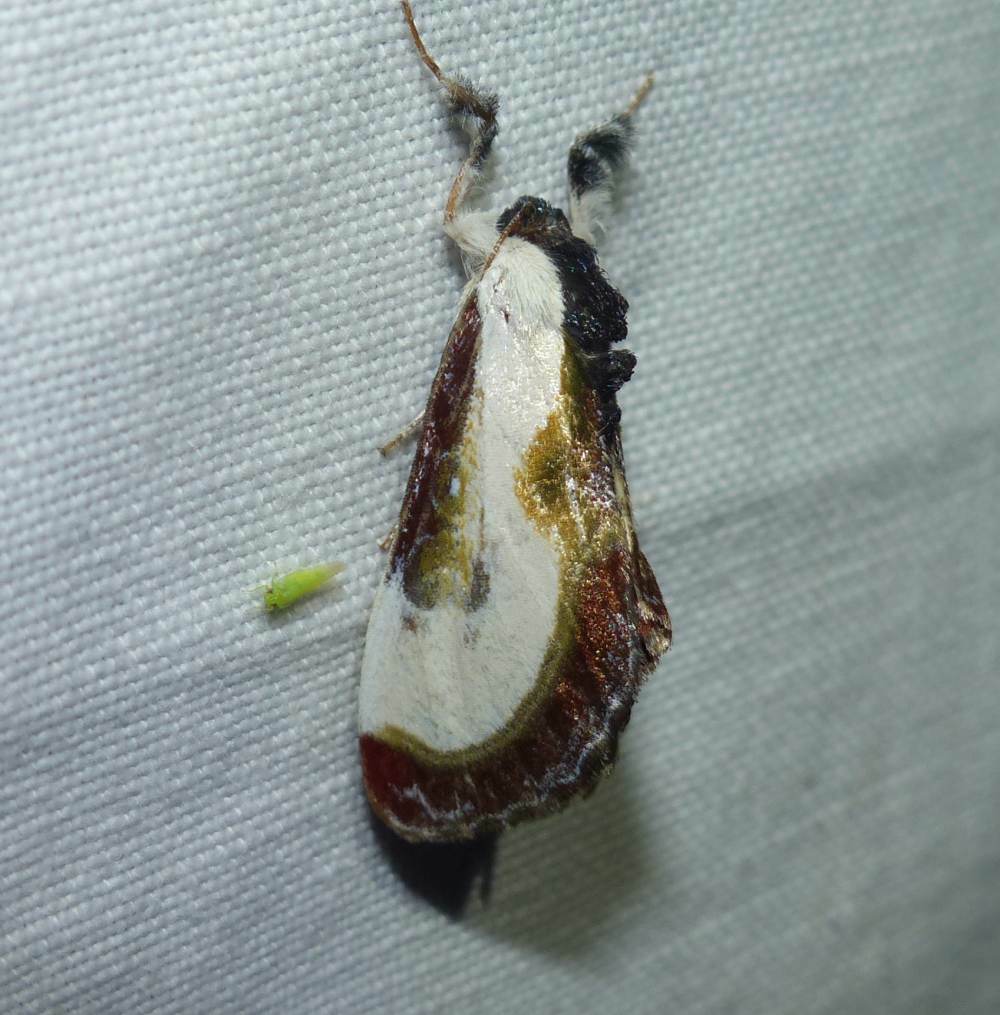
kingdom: Animalia
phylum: Arthropoda
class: Insecta
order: Lepidoptera
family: Noctuidae
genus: Eudryas
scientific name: Eudryas grata
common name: Beautiful wood-nymph
